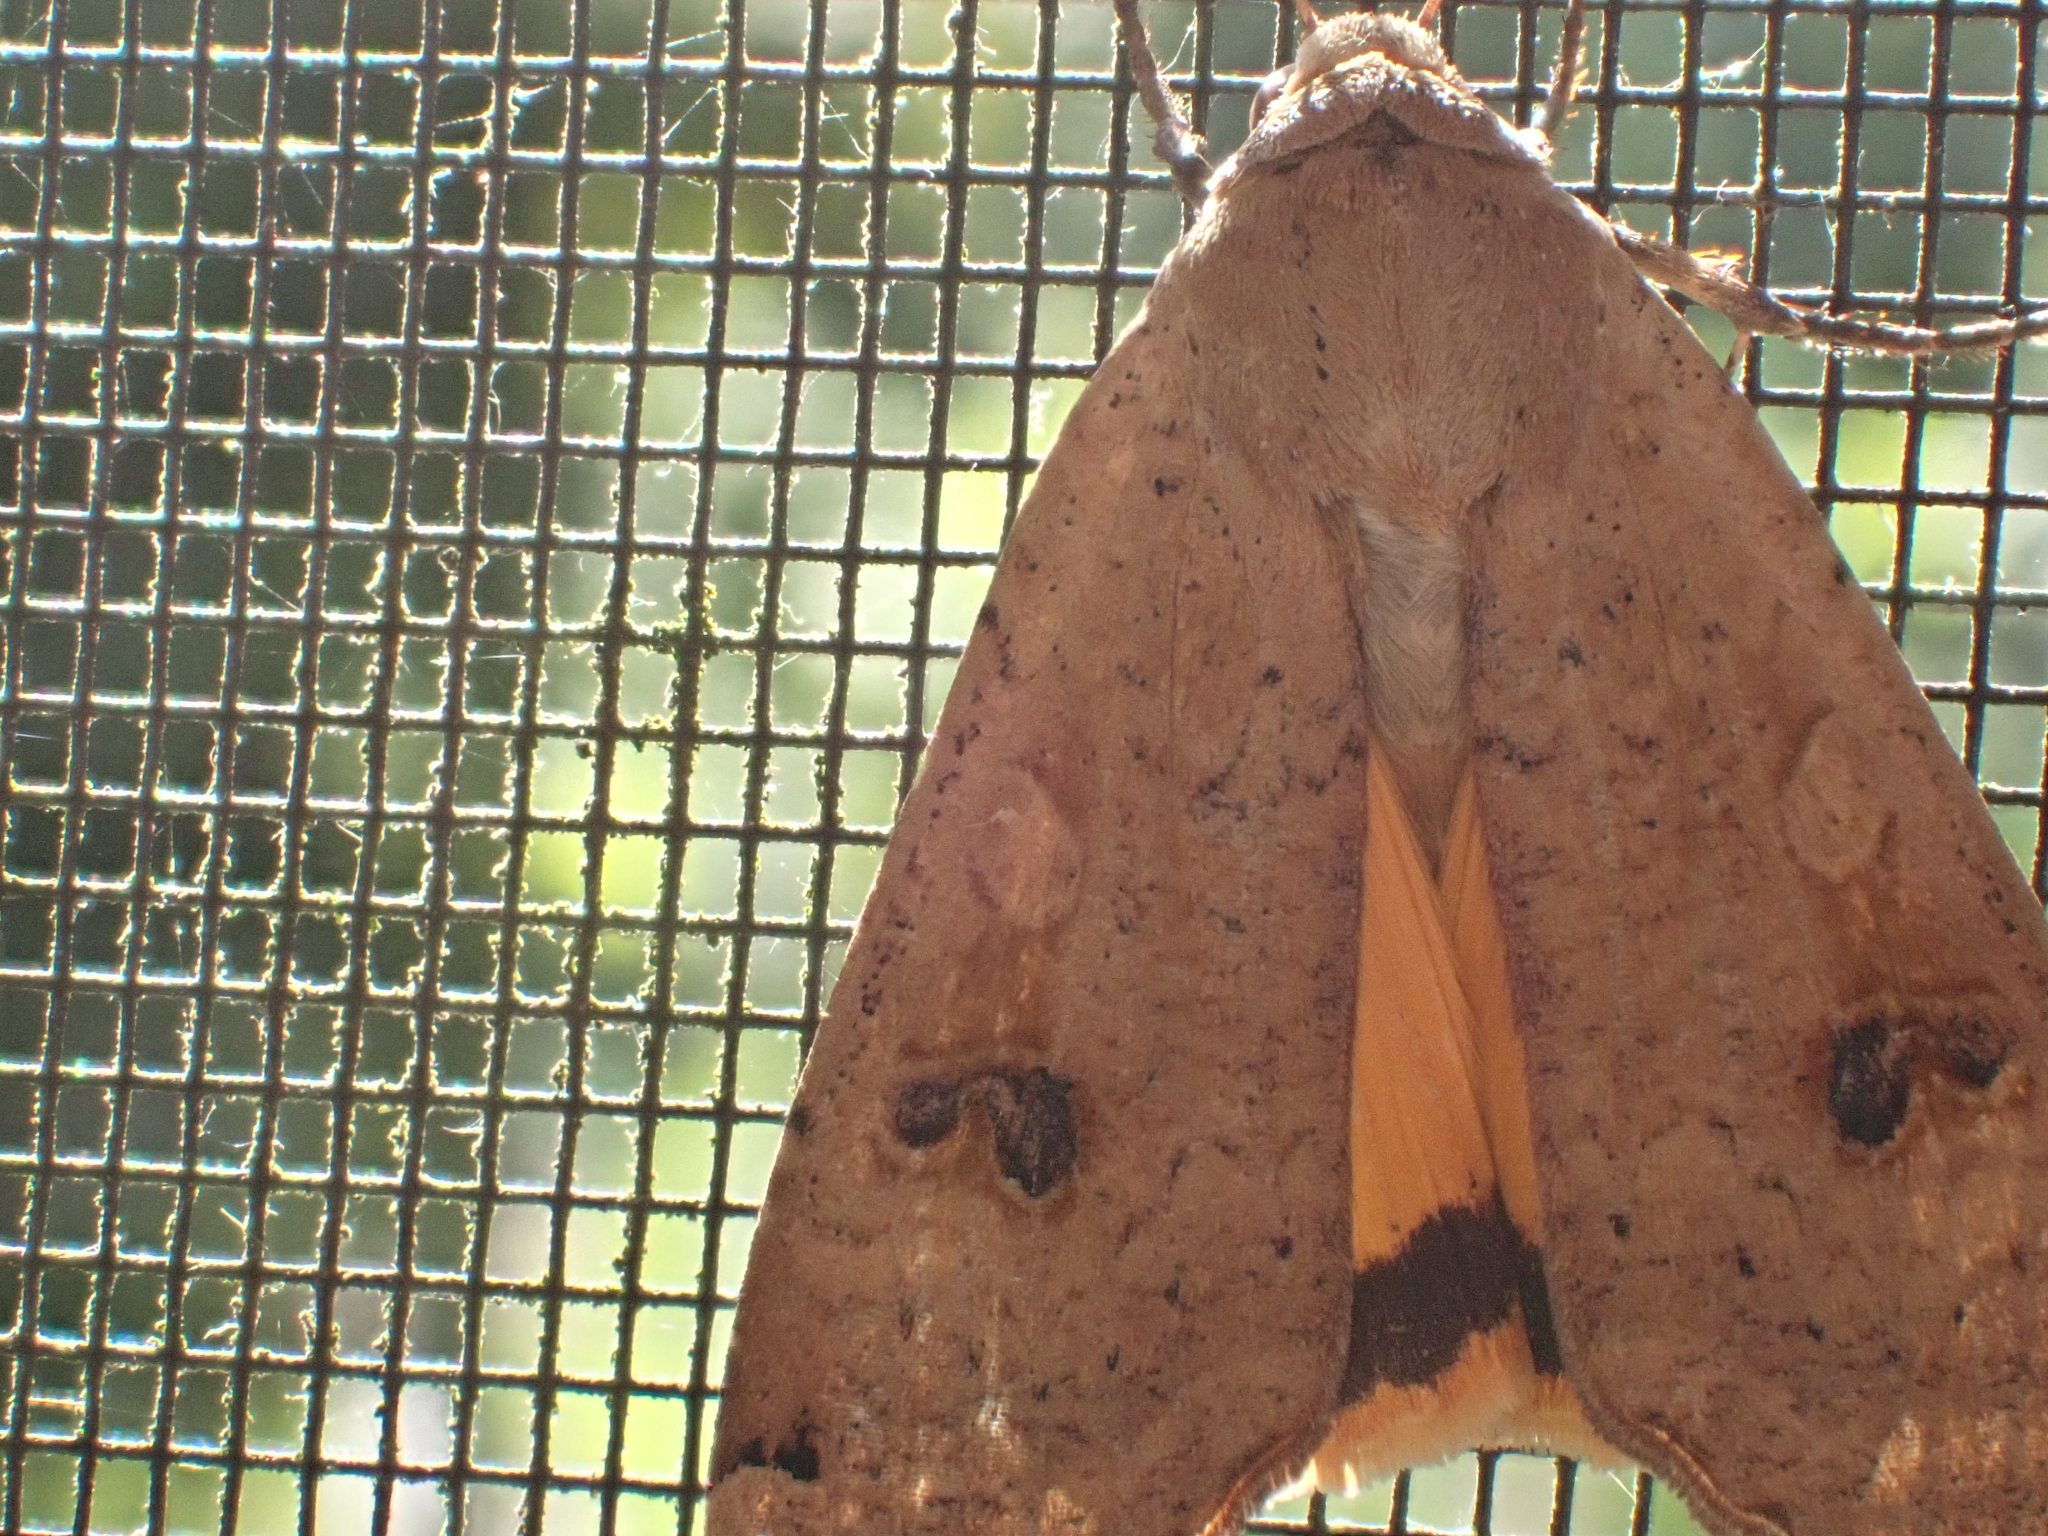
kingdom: Animalia
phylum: Arthropoda
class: Insecta
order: Lepidoptera
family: Noctuidae
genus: Noctua
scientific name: Noctua pronuba
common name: Large yellow underwing
